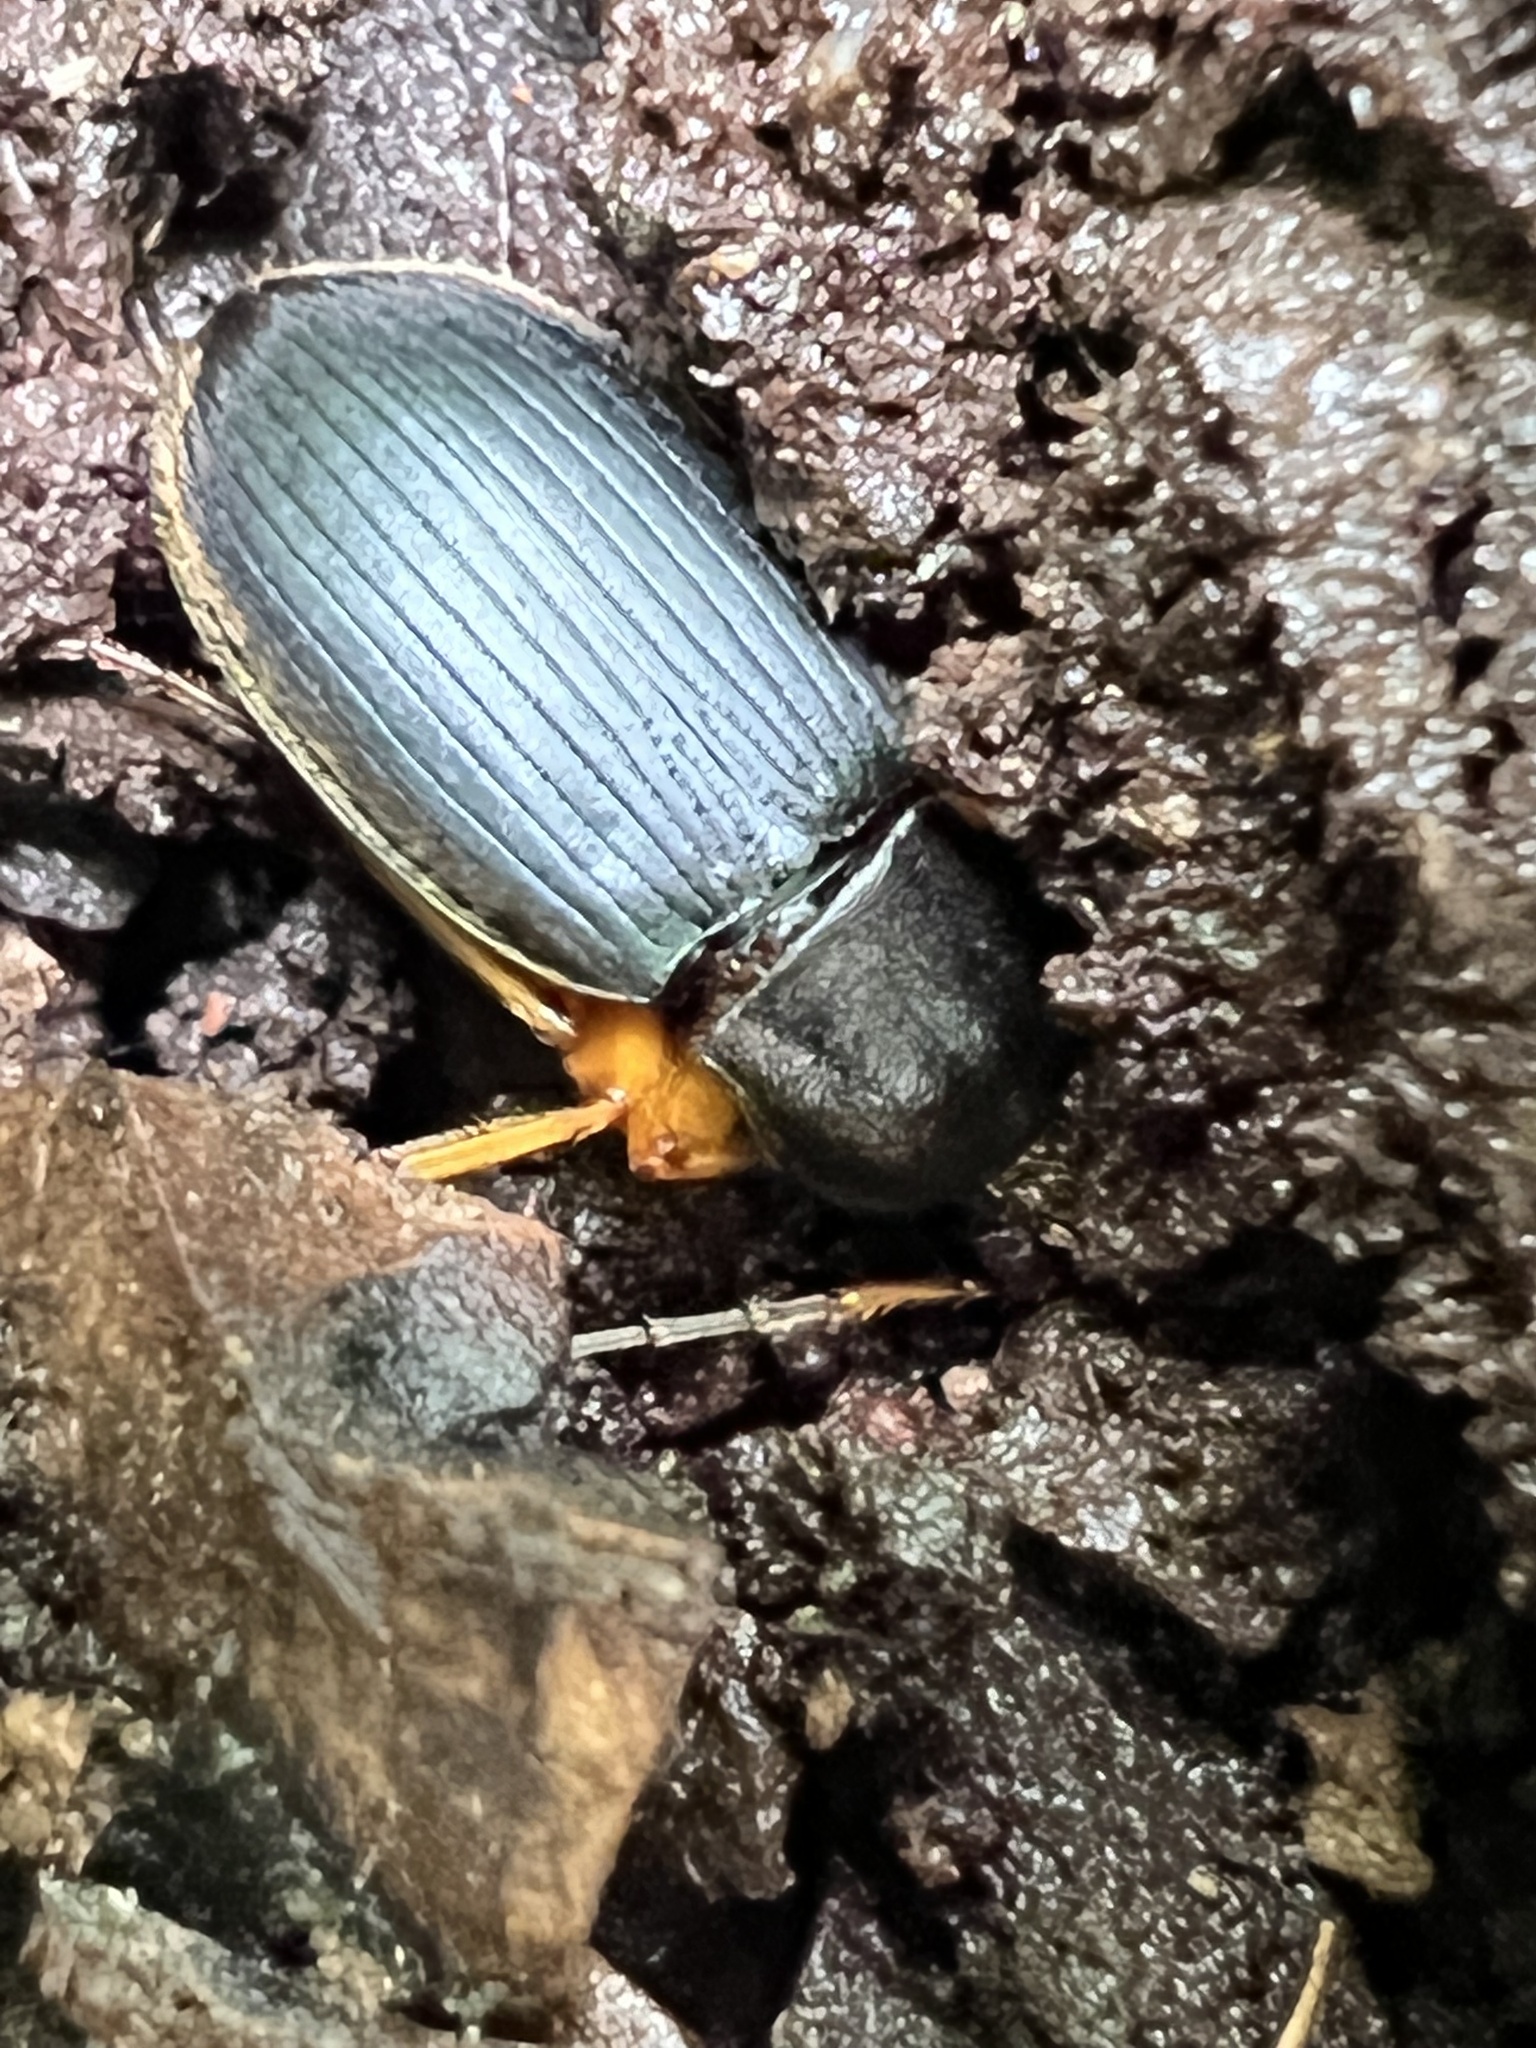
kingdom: Animalia
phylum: Arthropoda
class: Insecta
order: Coleoptera
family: Carabidae
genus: Chlaenius
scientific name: Chlaenius aestivus
